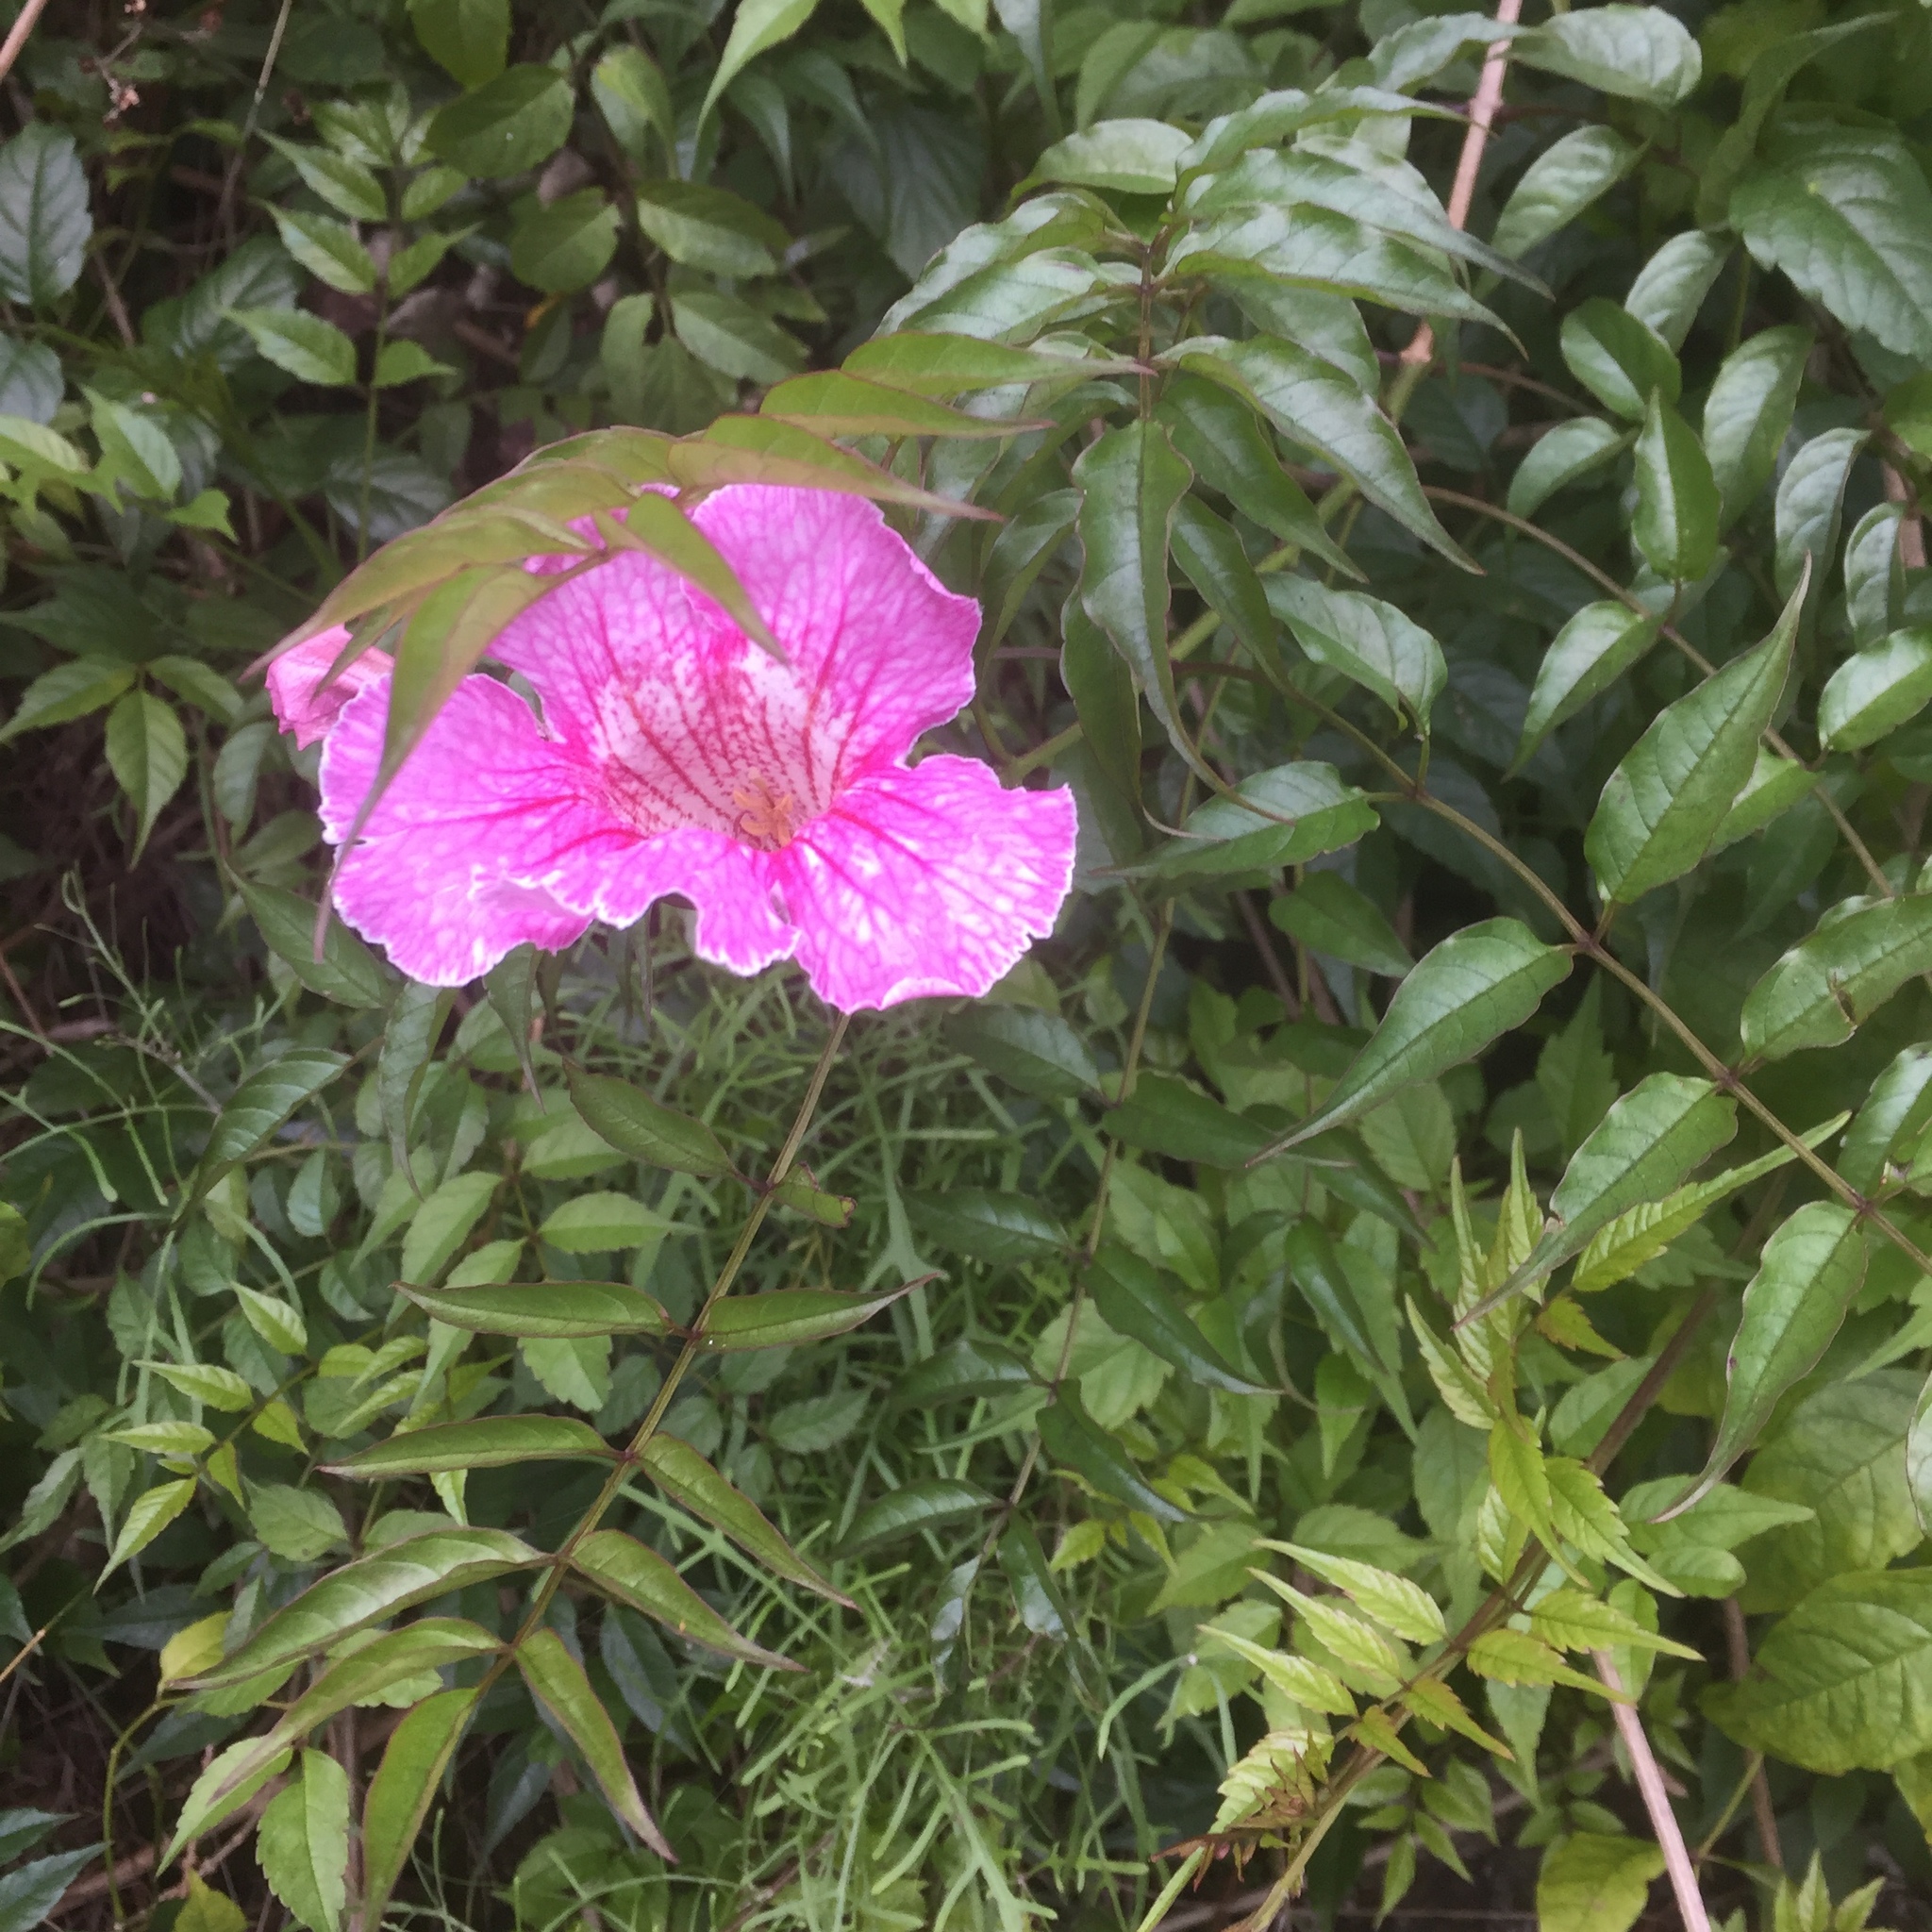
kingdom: Plantae
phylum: Tracheophyta
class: Magnoliopsida
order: Lamiales
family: Bignoniaceae
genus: Podranea
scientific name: Podranea ricasoliana
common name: Zimbabwe creeper
